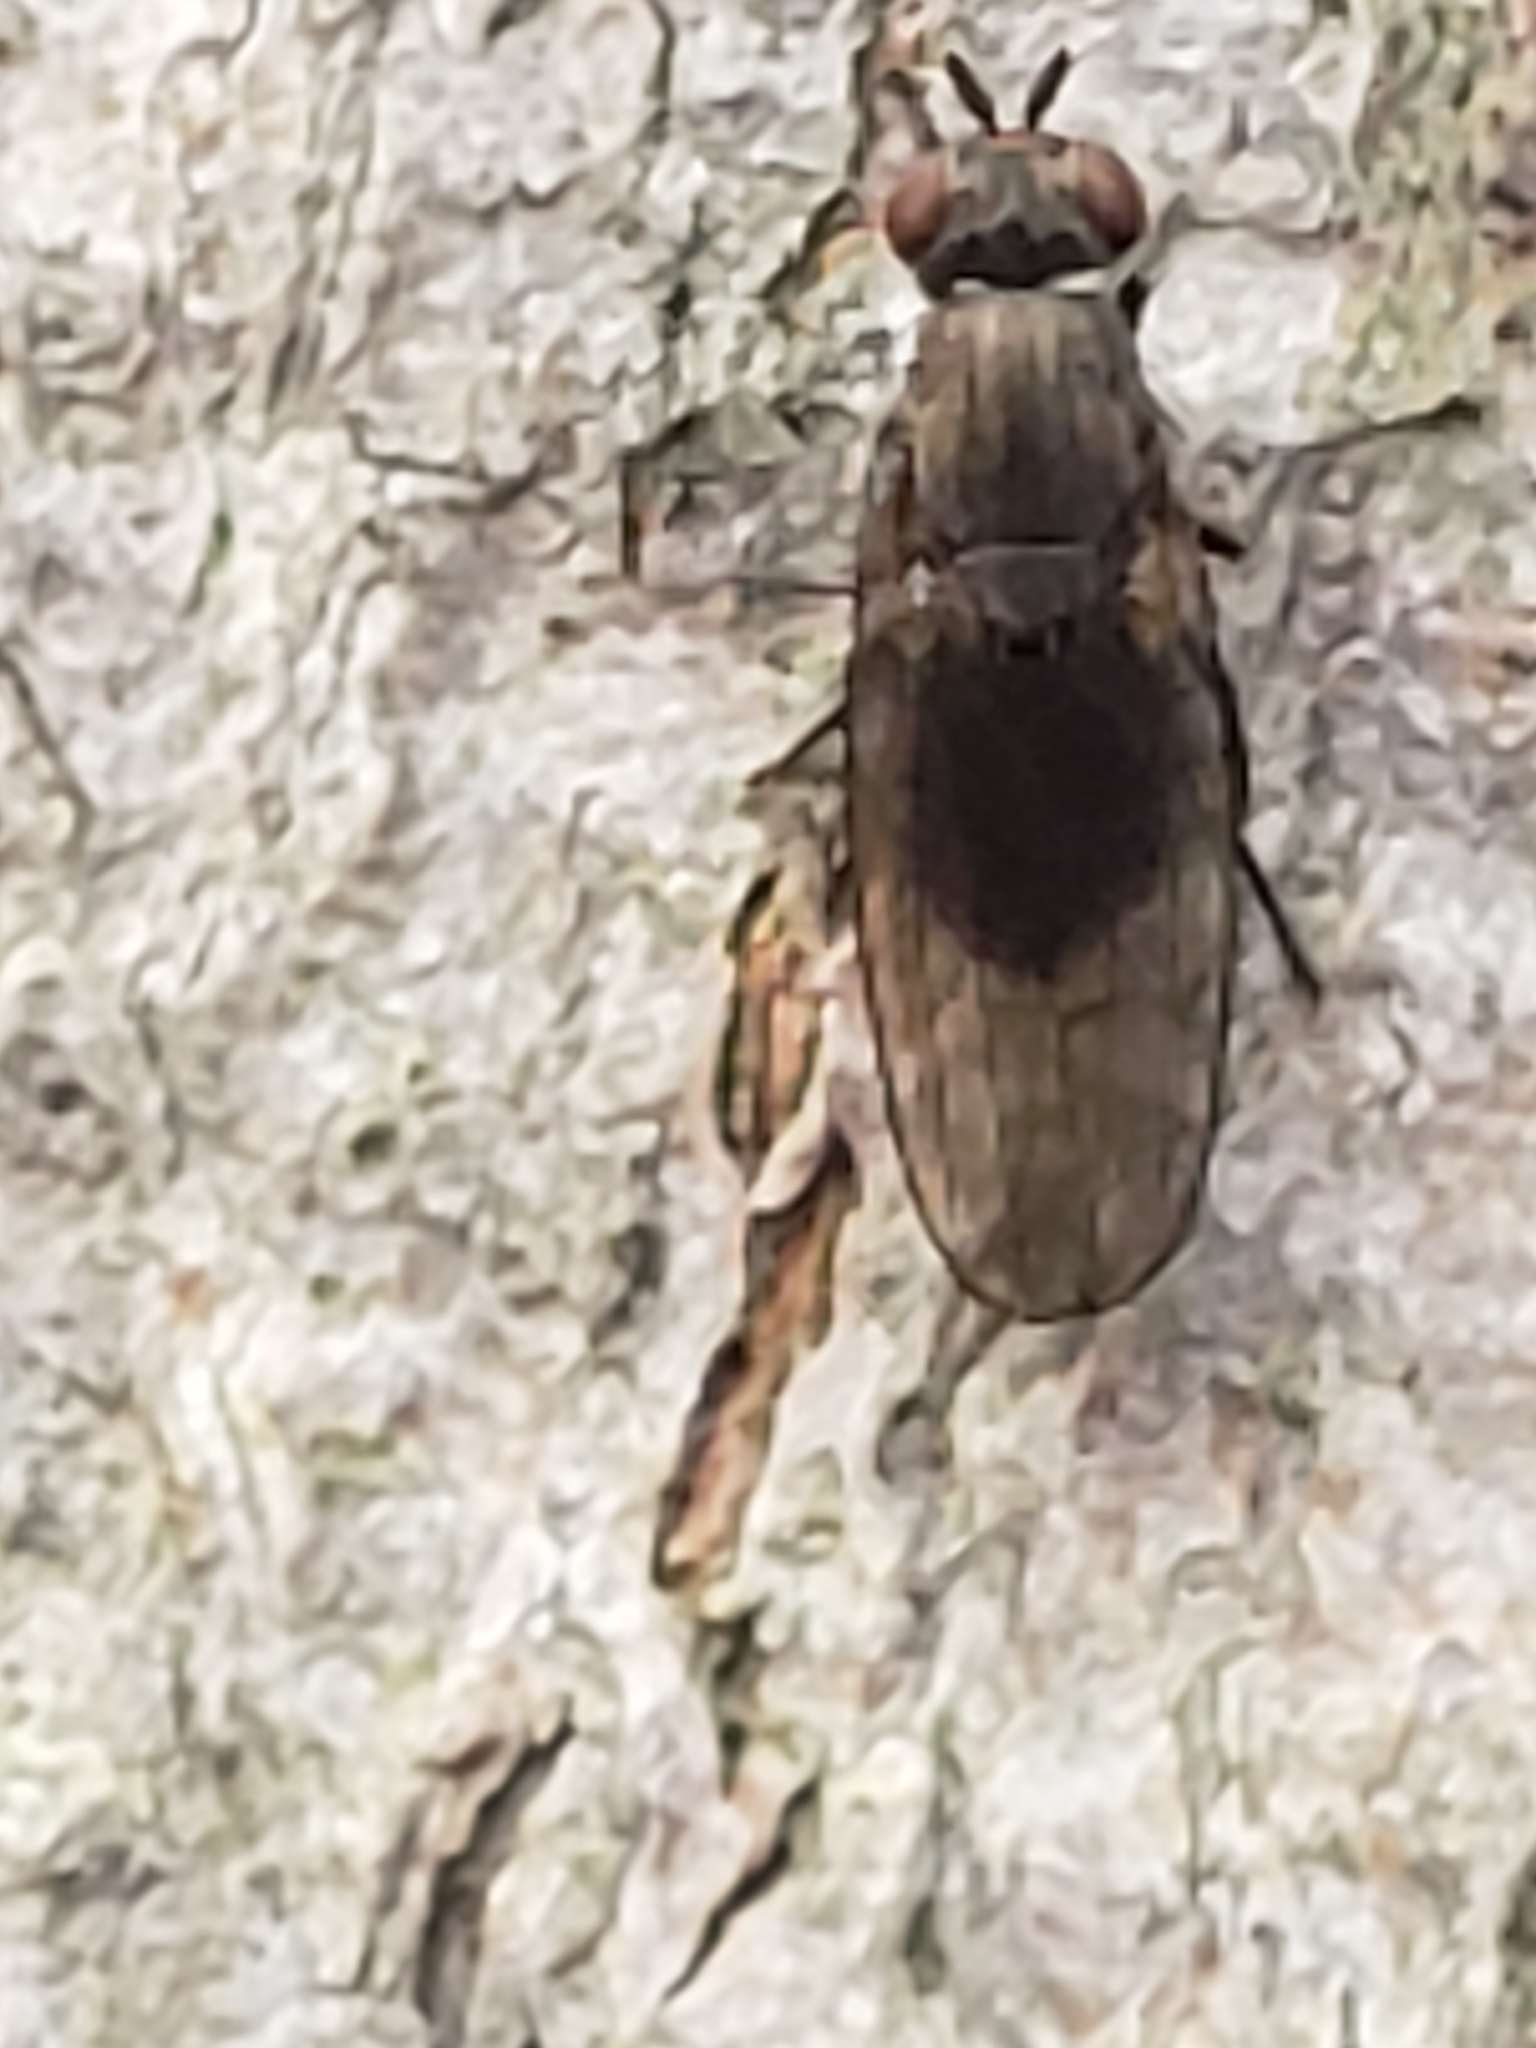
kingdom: Animalia
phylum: Arthropoda
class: Insecta
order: Diptera
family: Lauxaniidae
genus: Sapromyza
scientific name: Sapromyza brachysoma
